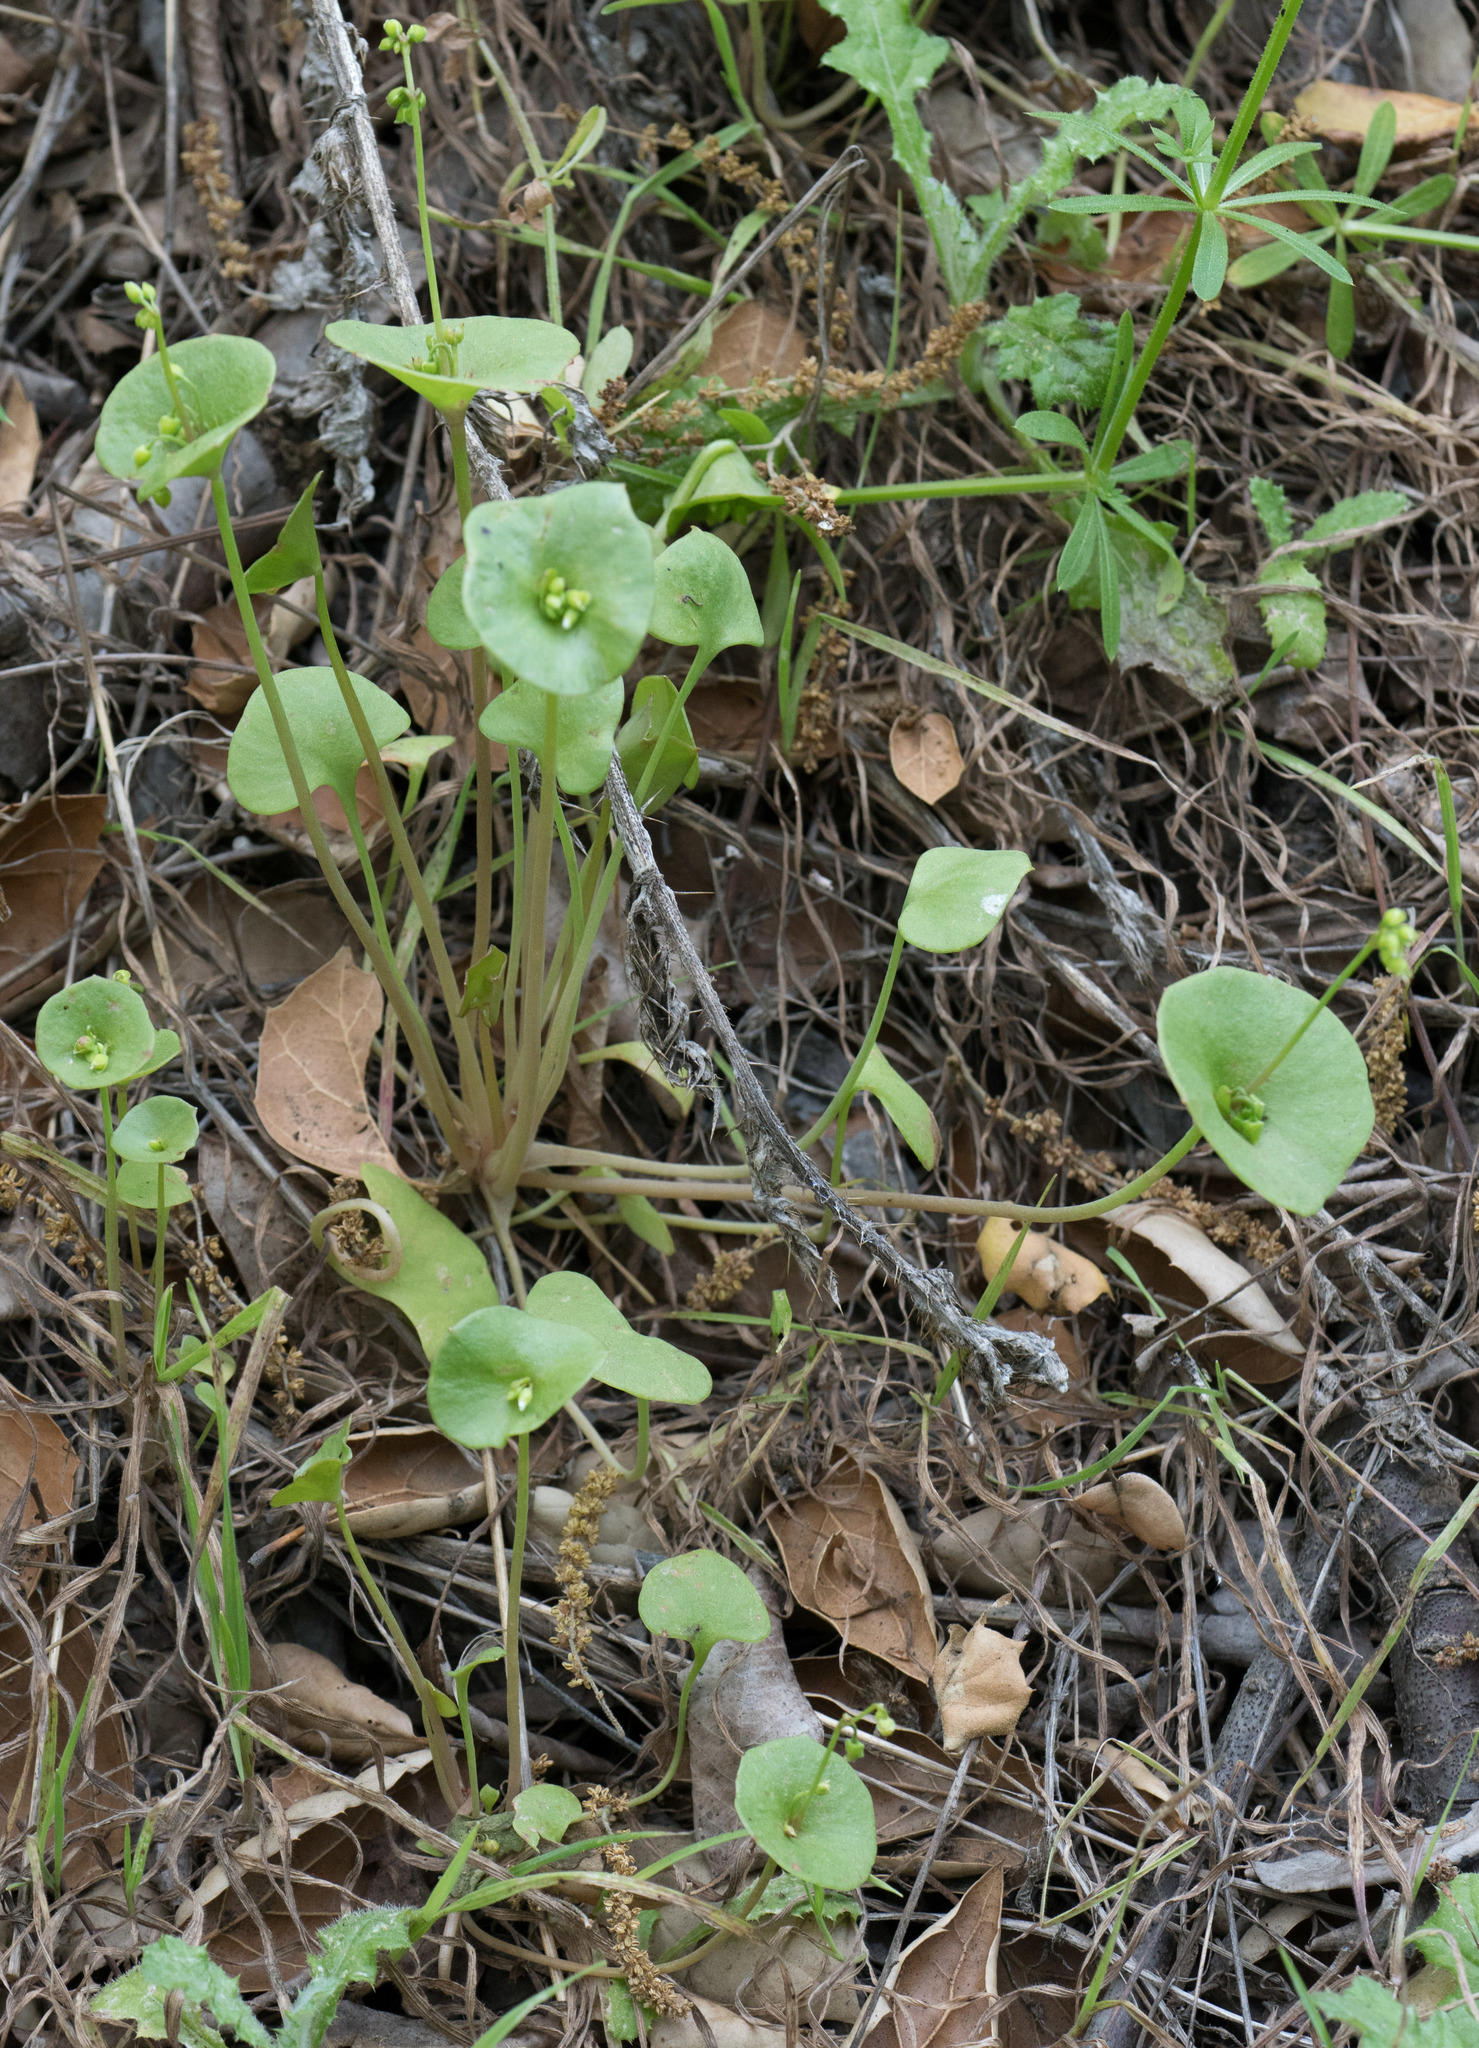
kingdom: Plantae
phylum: Tracheophyta
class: Magnoliopsida
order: Caryophyllales
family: Montiaceae
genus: Claytonia
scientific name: Claytonia perfoliata
